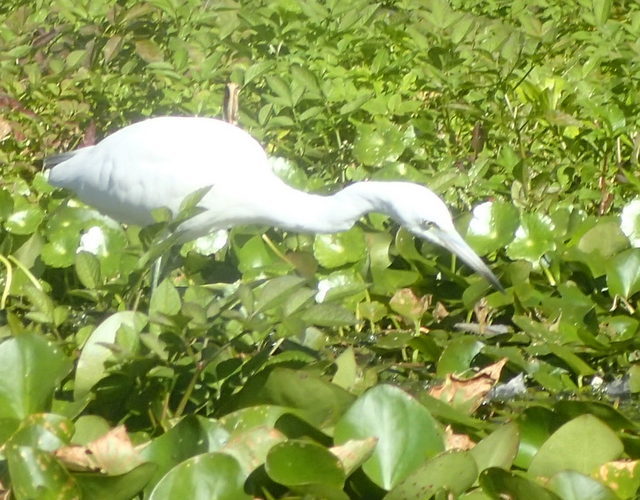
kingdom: Animalia
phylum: Chordata
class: Aves
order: Pelecaniformes
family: Ardeidae
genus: Egretta
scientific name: Egretta caerulea
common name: Little blue heron
